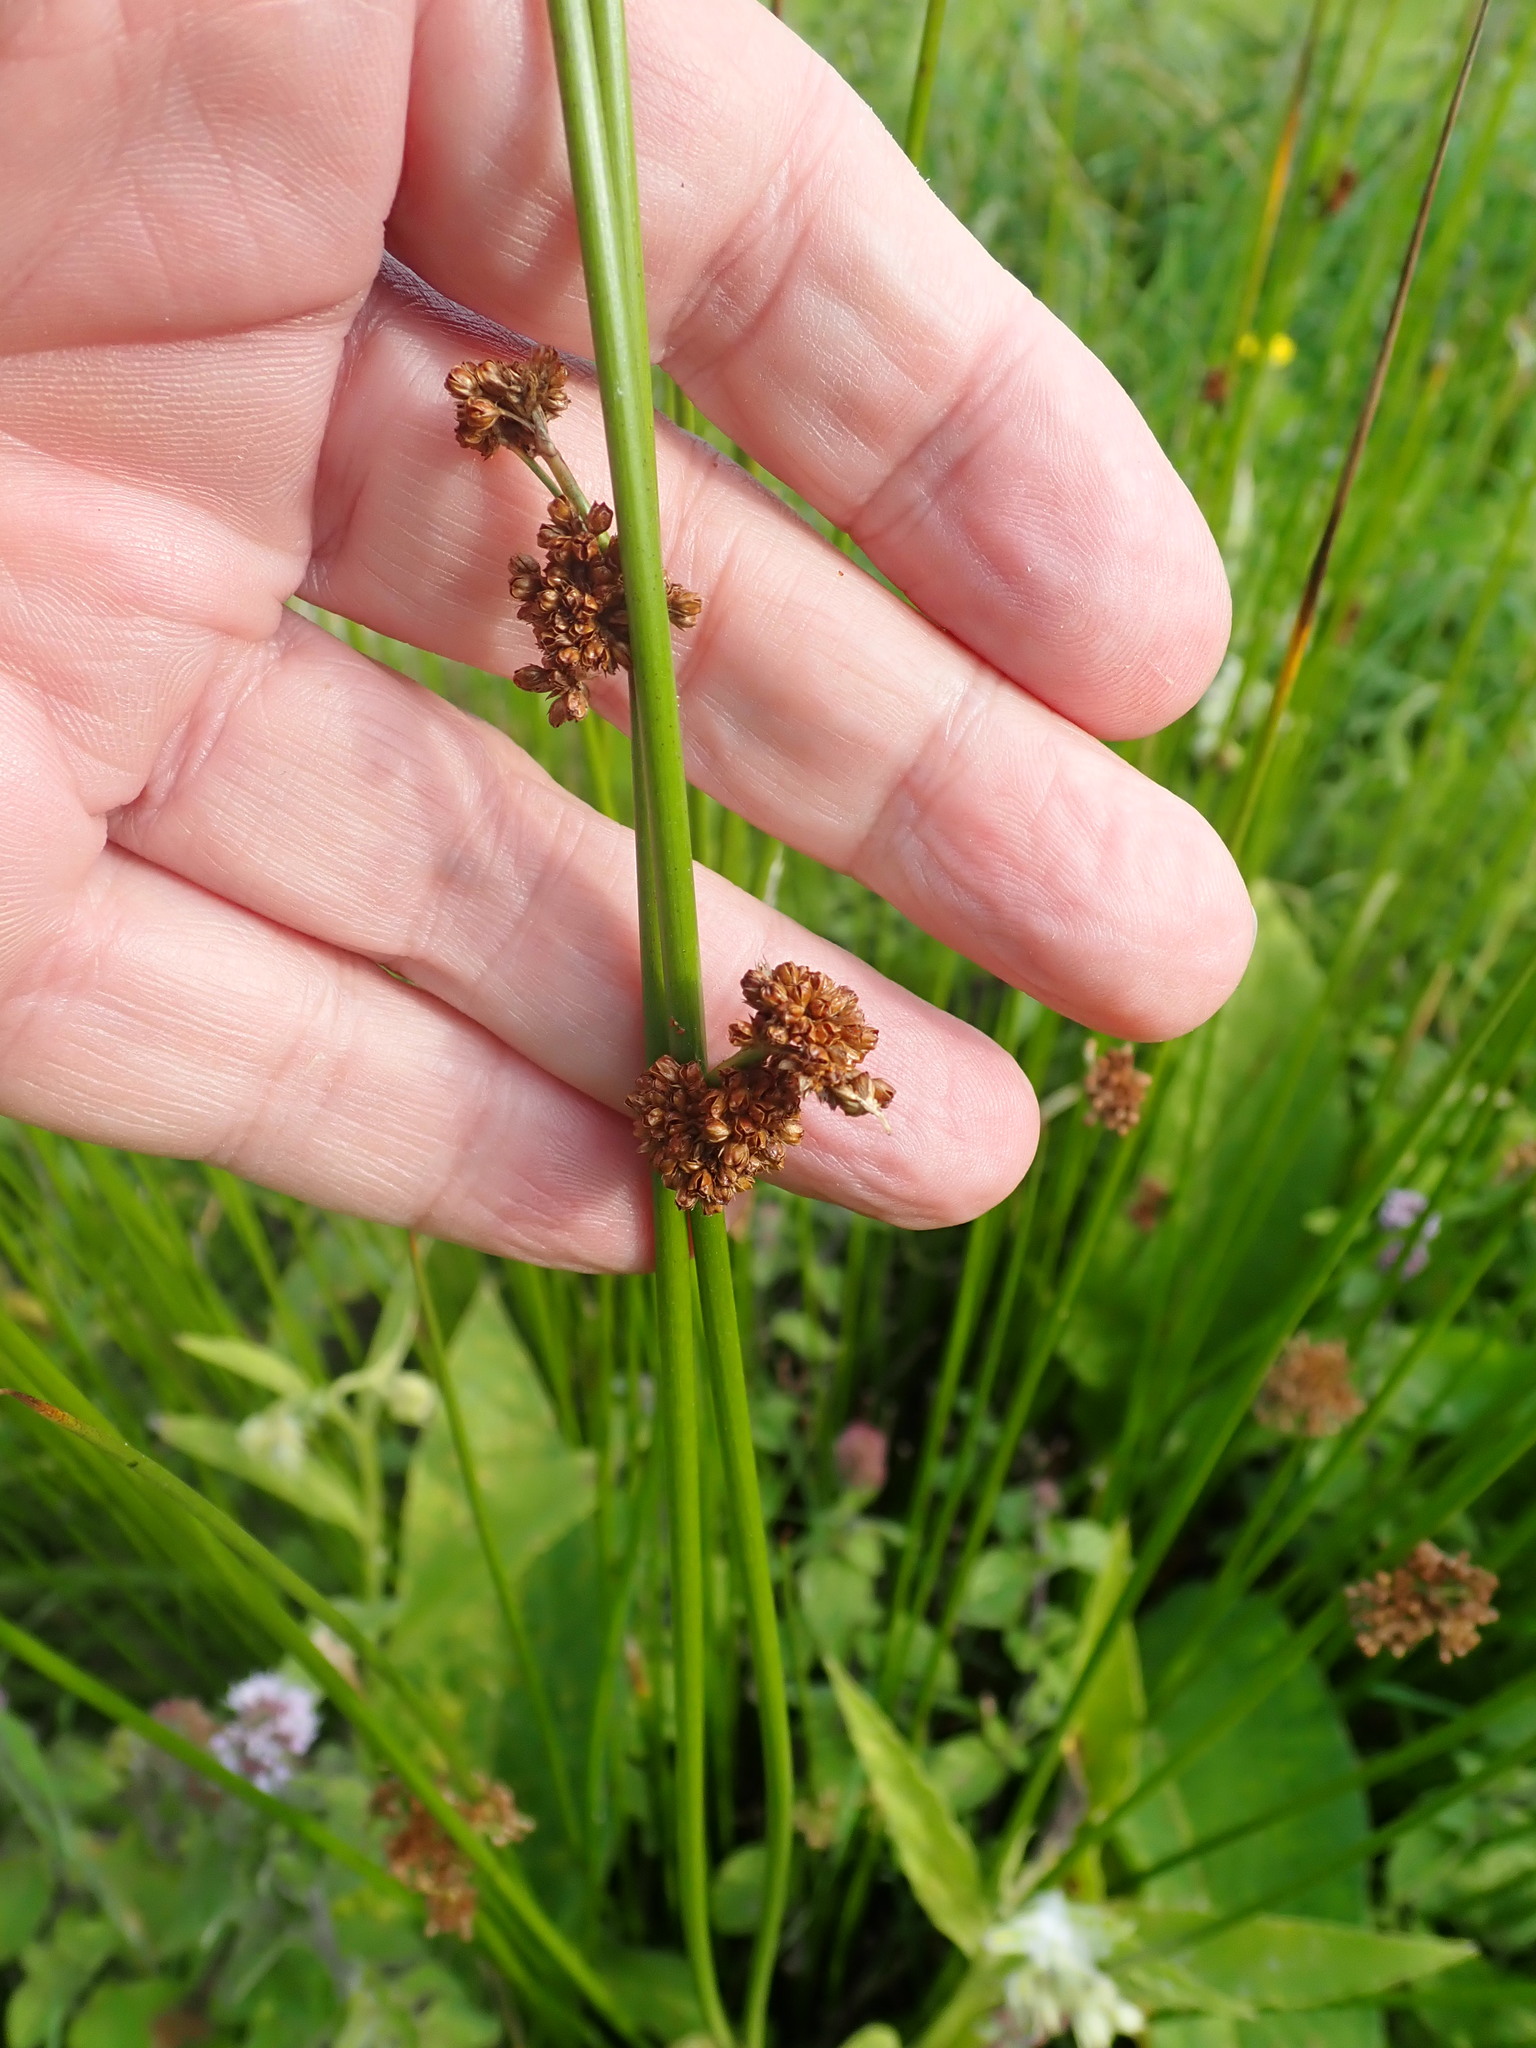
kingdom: Plantae
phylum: Tracheophyta
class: Liliopsida
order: Poales
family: Juncaceae
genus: Juncus
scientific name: Juncus effusus
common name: Soft rush
